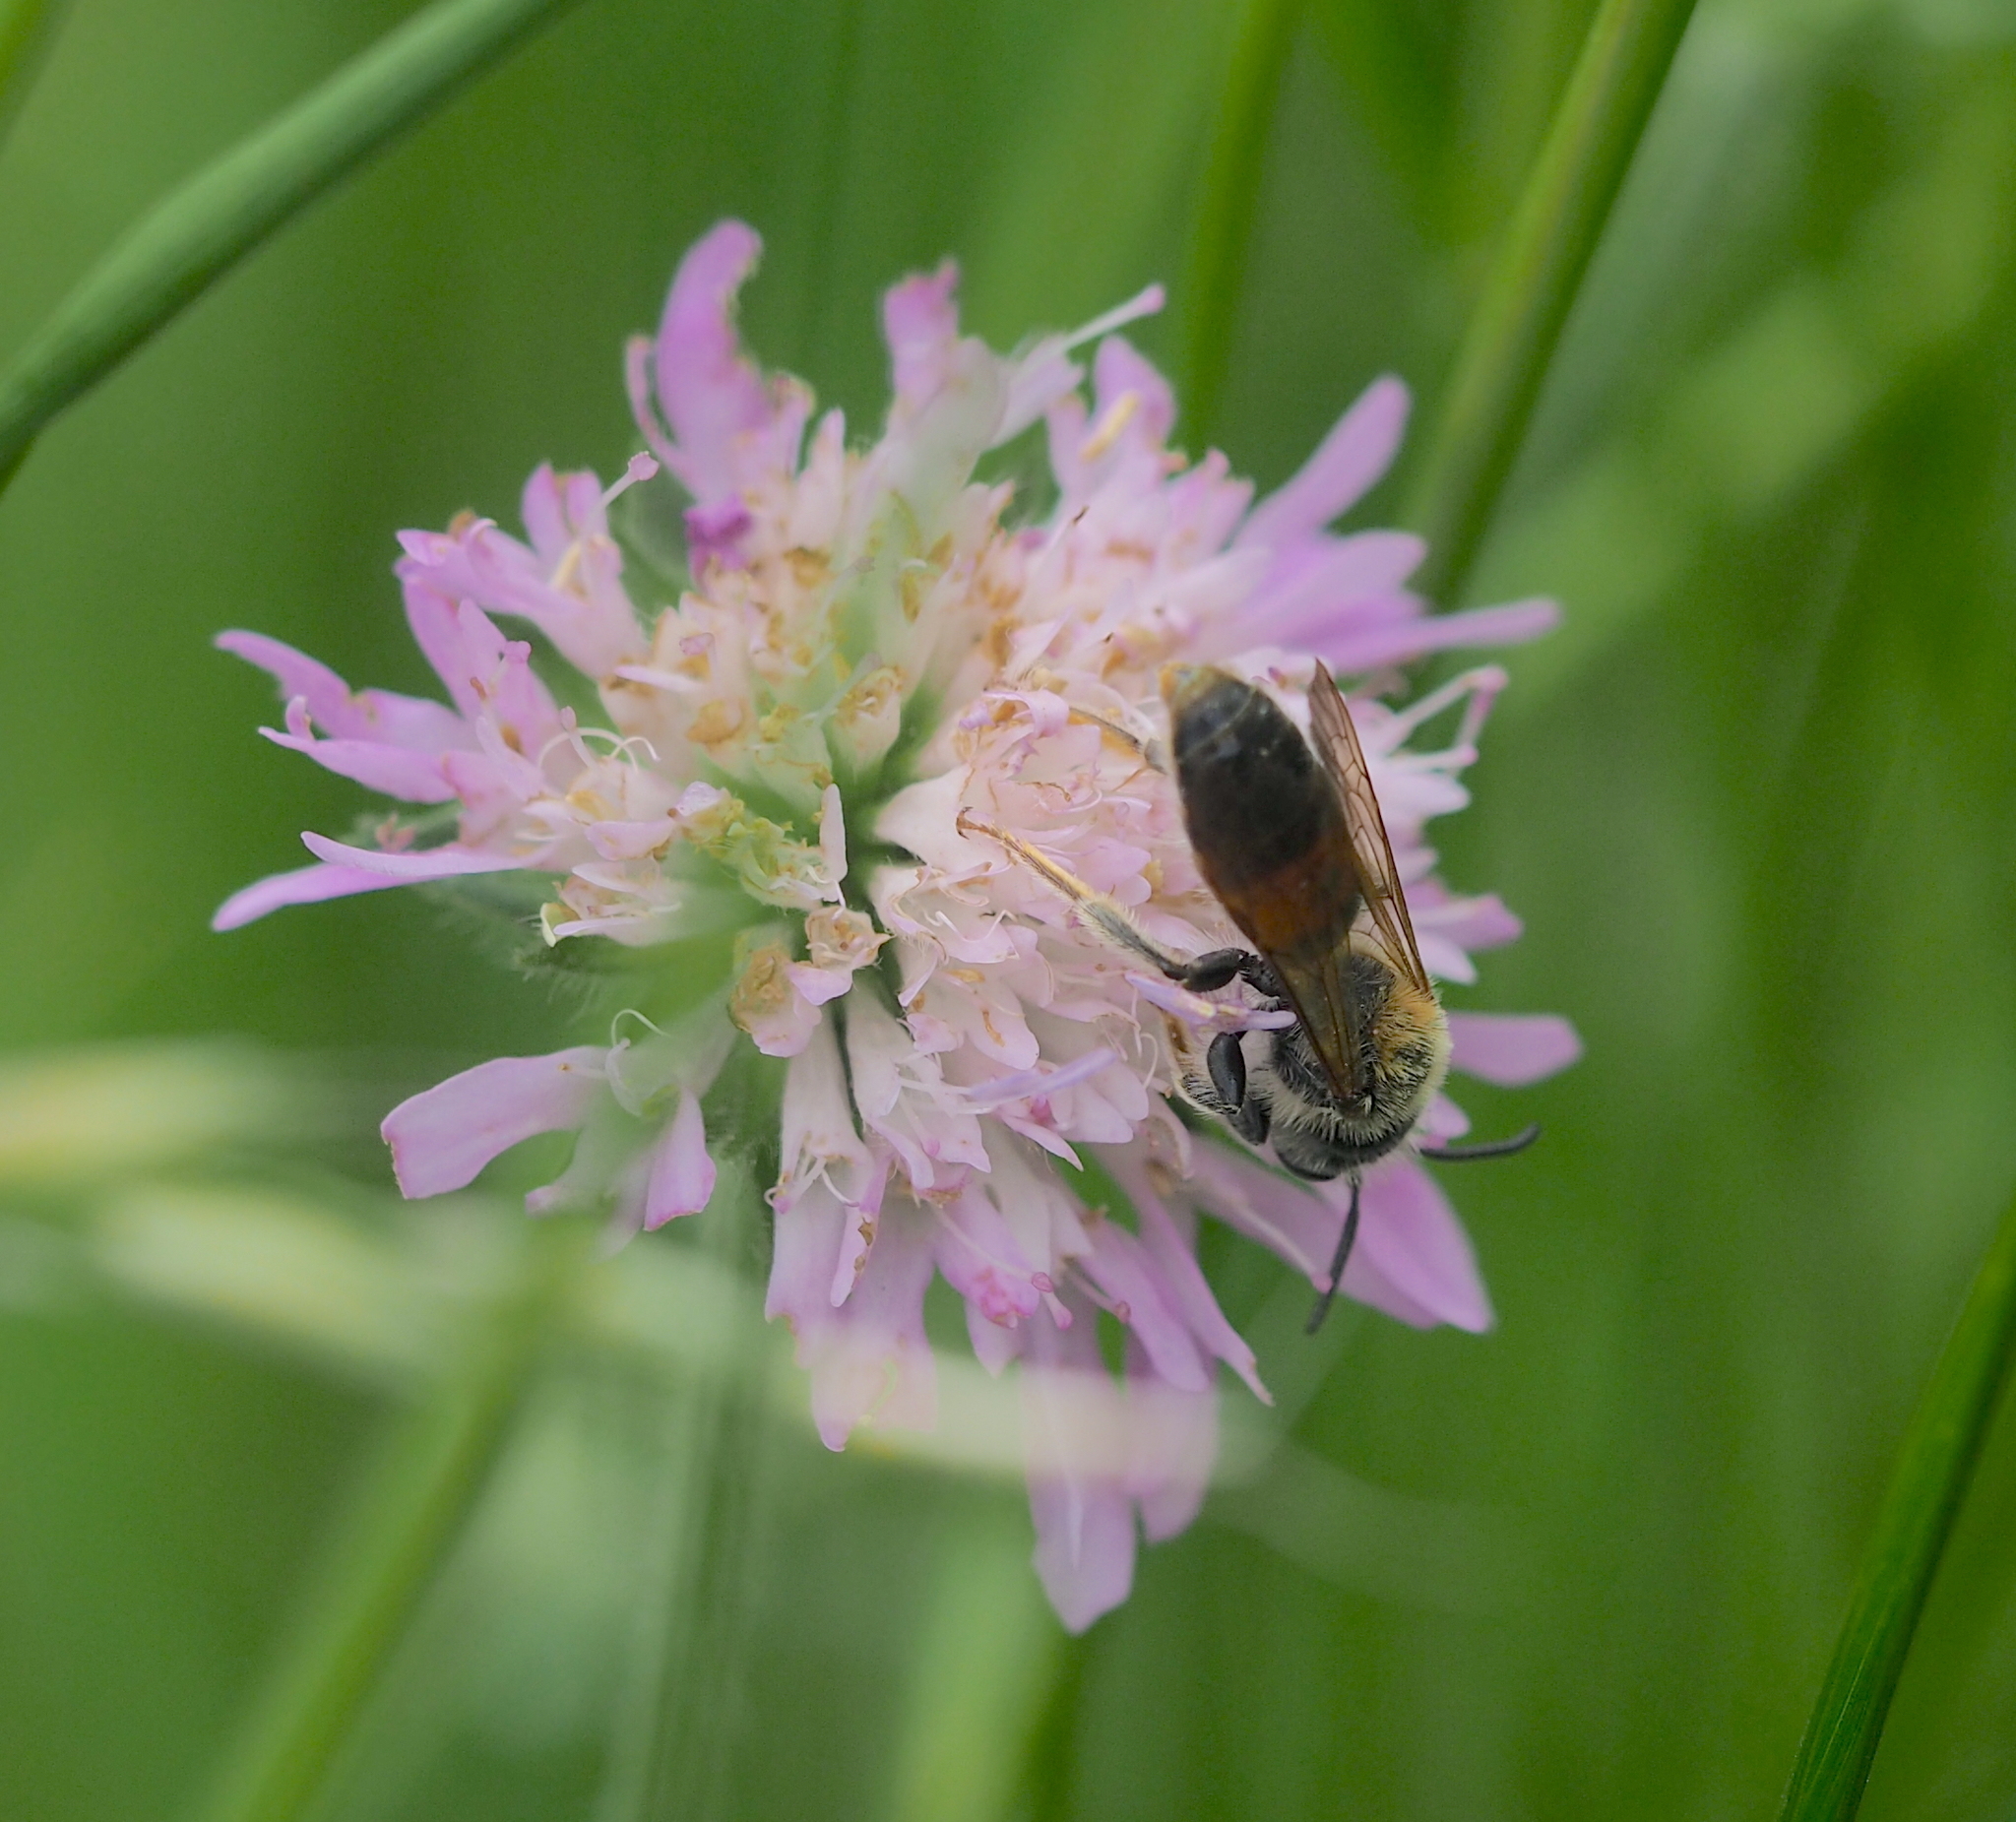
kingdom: Animalia
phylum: Arthropoda
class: Insecta
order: Hymenoptera
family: Andrenidae
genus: Andrena
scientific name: Andrena hattorfiana
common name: Large scabious mining bee
